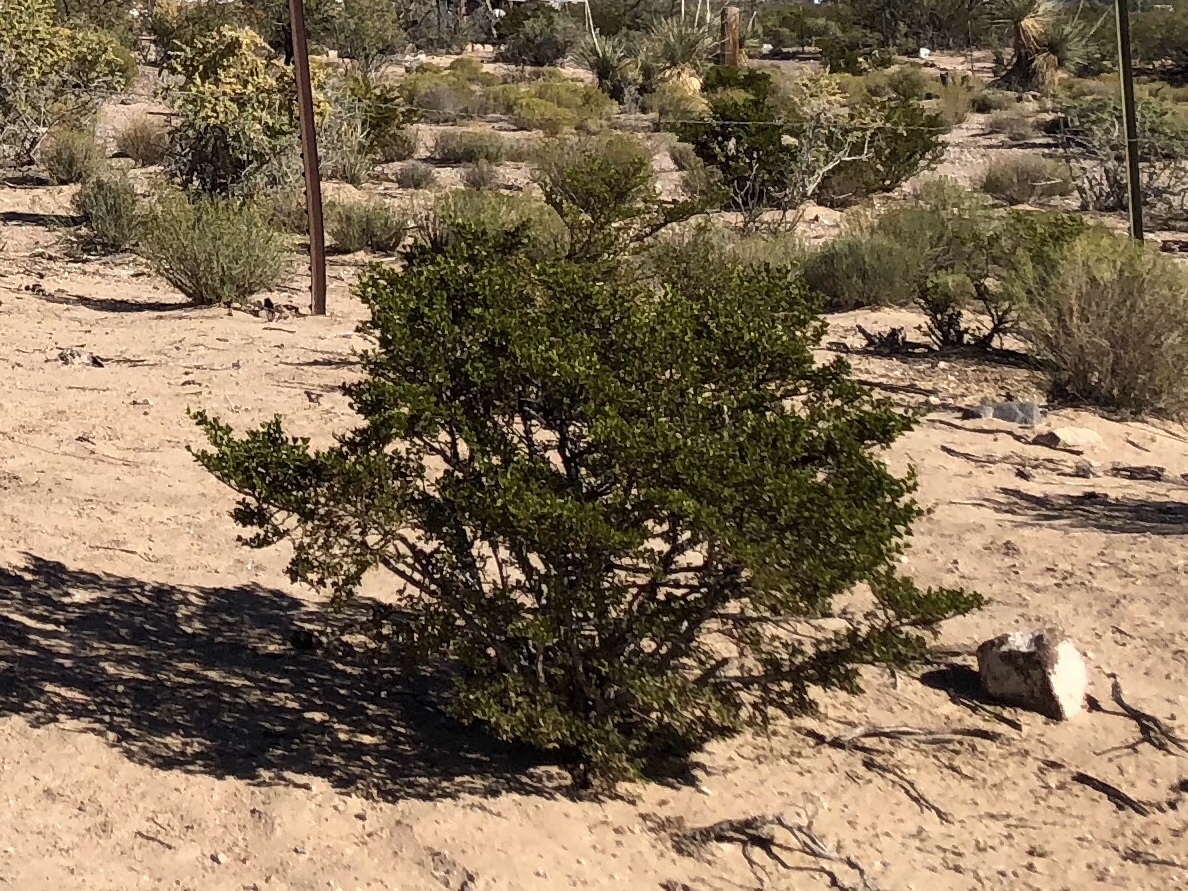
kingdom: Plantae
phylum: Tracheophyta
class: Magnoliopsida
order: Zygophyllales
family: Zygophyllaceae
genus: Larrea
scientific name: Larrea tridentata
